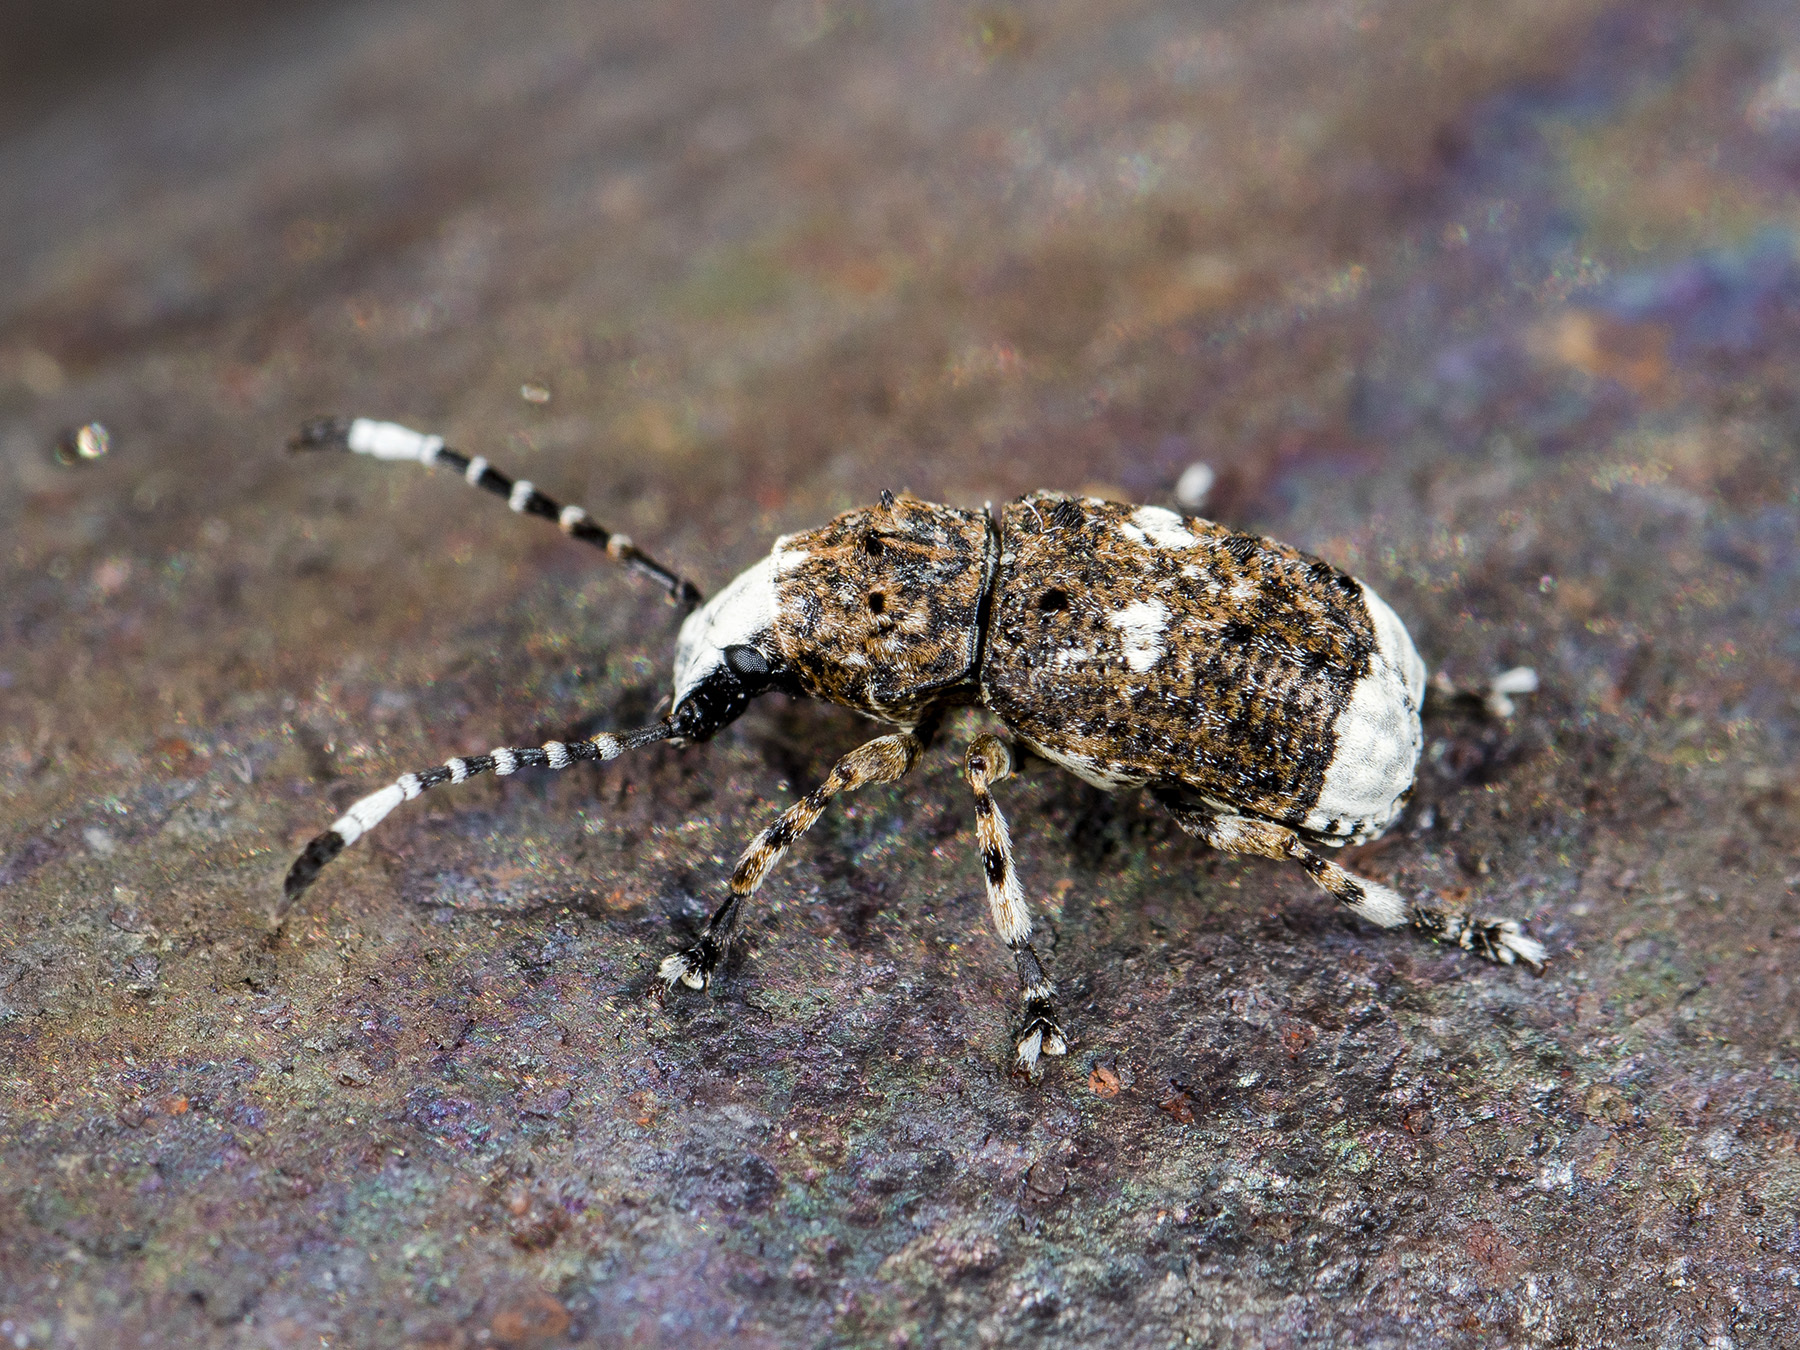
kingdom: Animalia
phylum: Arthropoda
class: Insecta
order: Coleoptera
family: Anthribidae
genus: Platystomos
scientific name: Platystomos albinus
